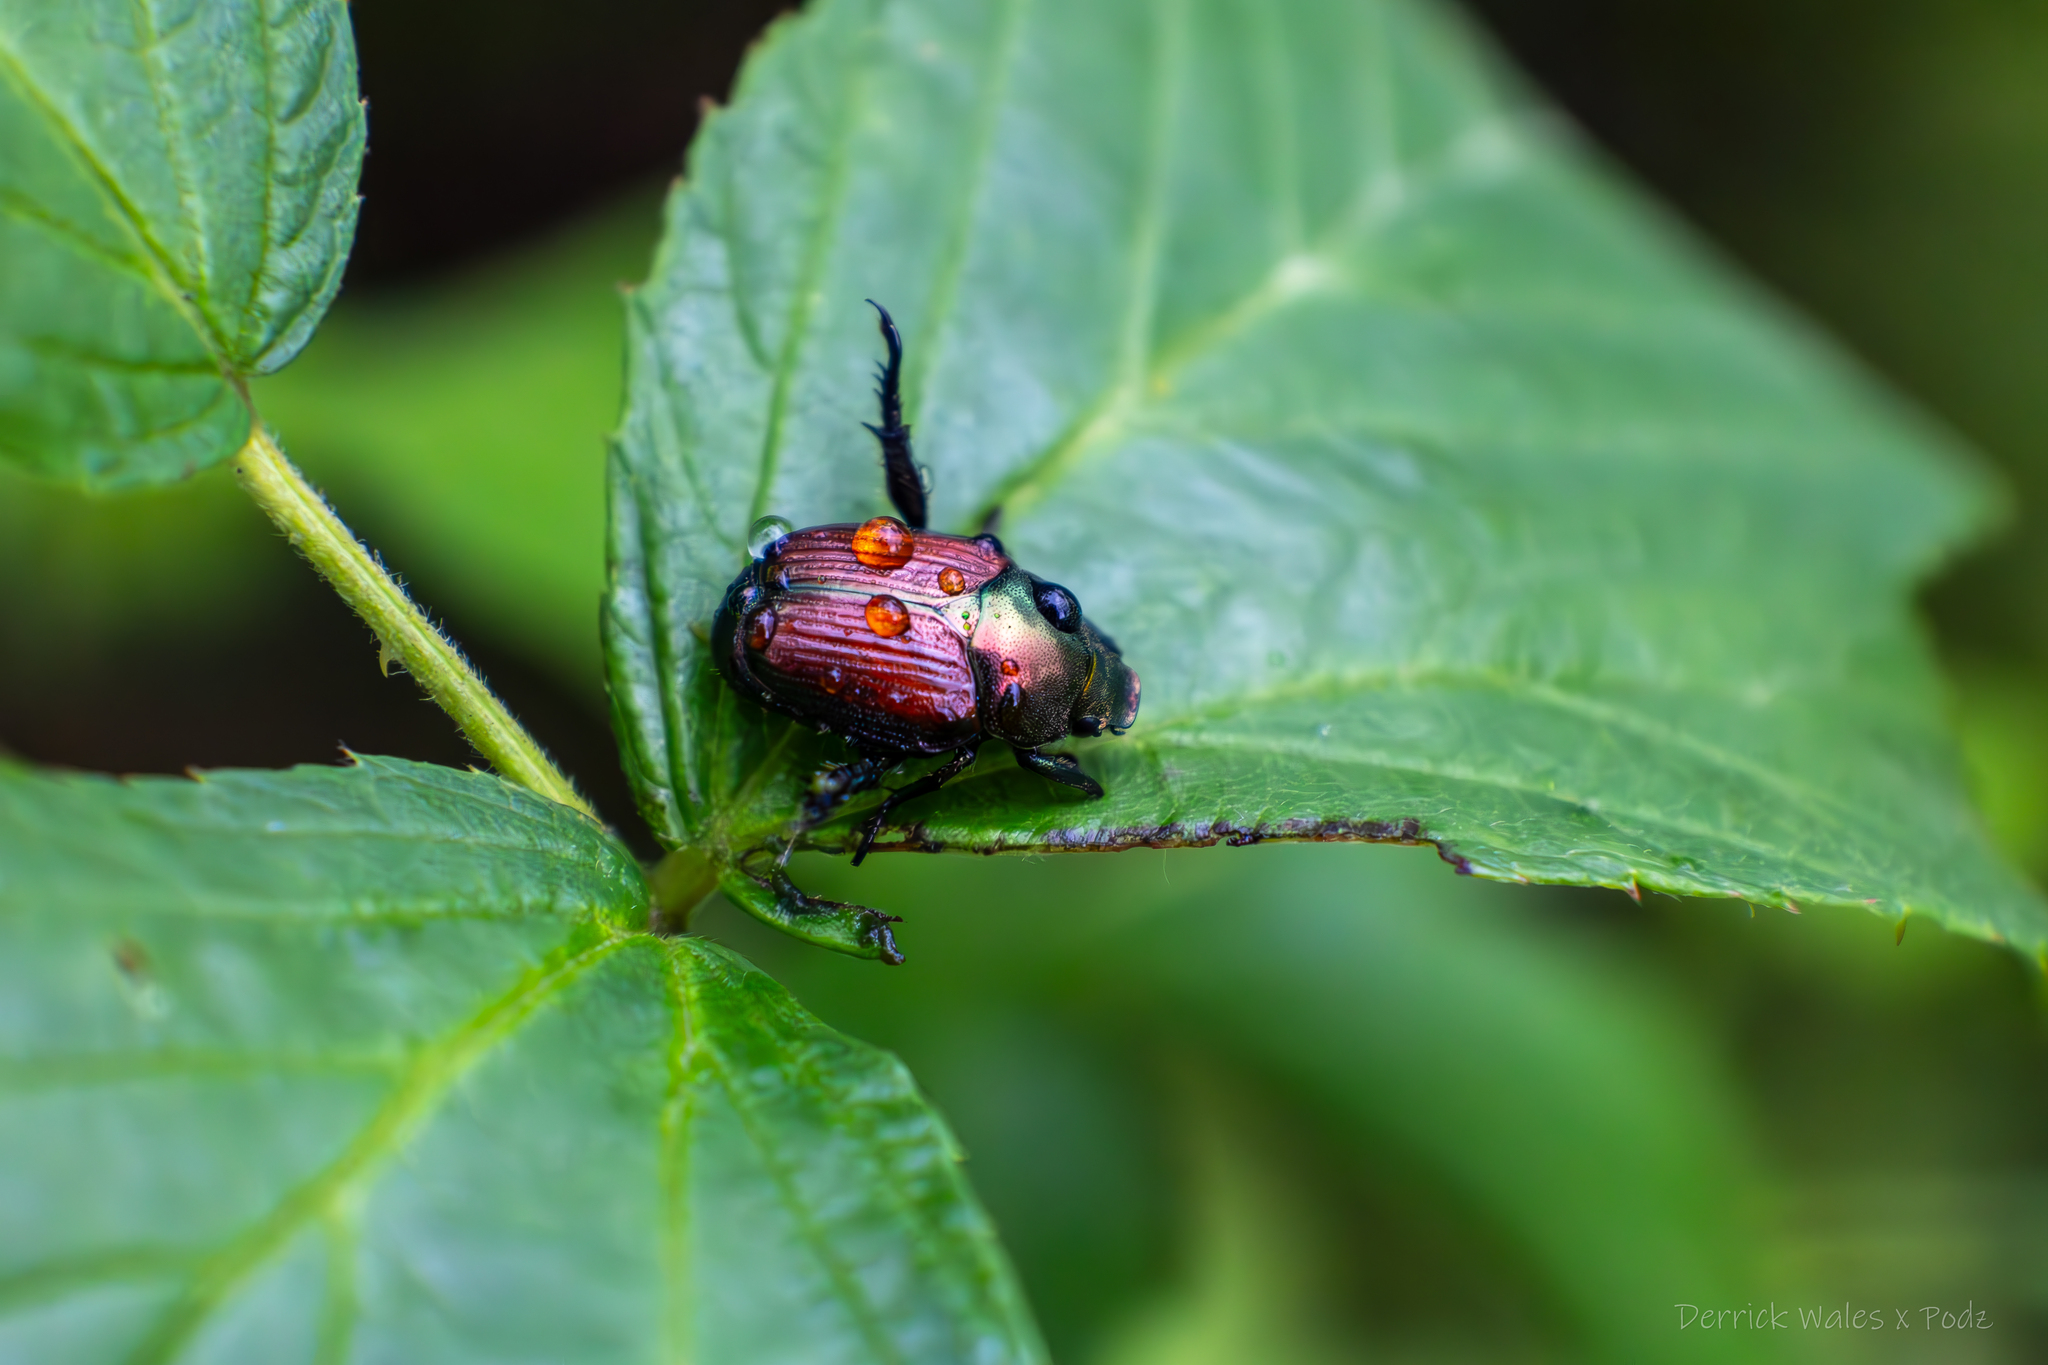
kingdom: Animalia
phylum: Arthropoda
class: Insecta
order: Coleoptera
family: Scarabaeidae
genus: Popillia
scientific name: Popillia japonica
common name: Japanese beetle
